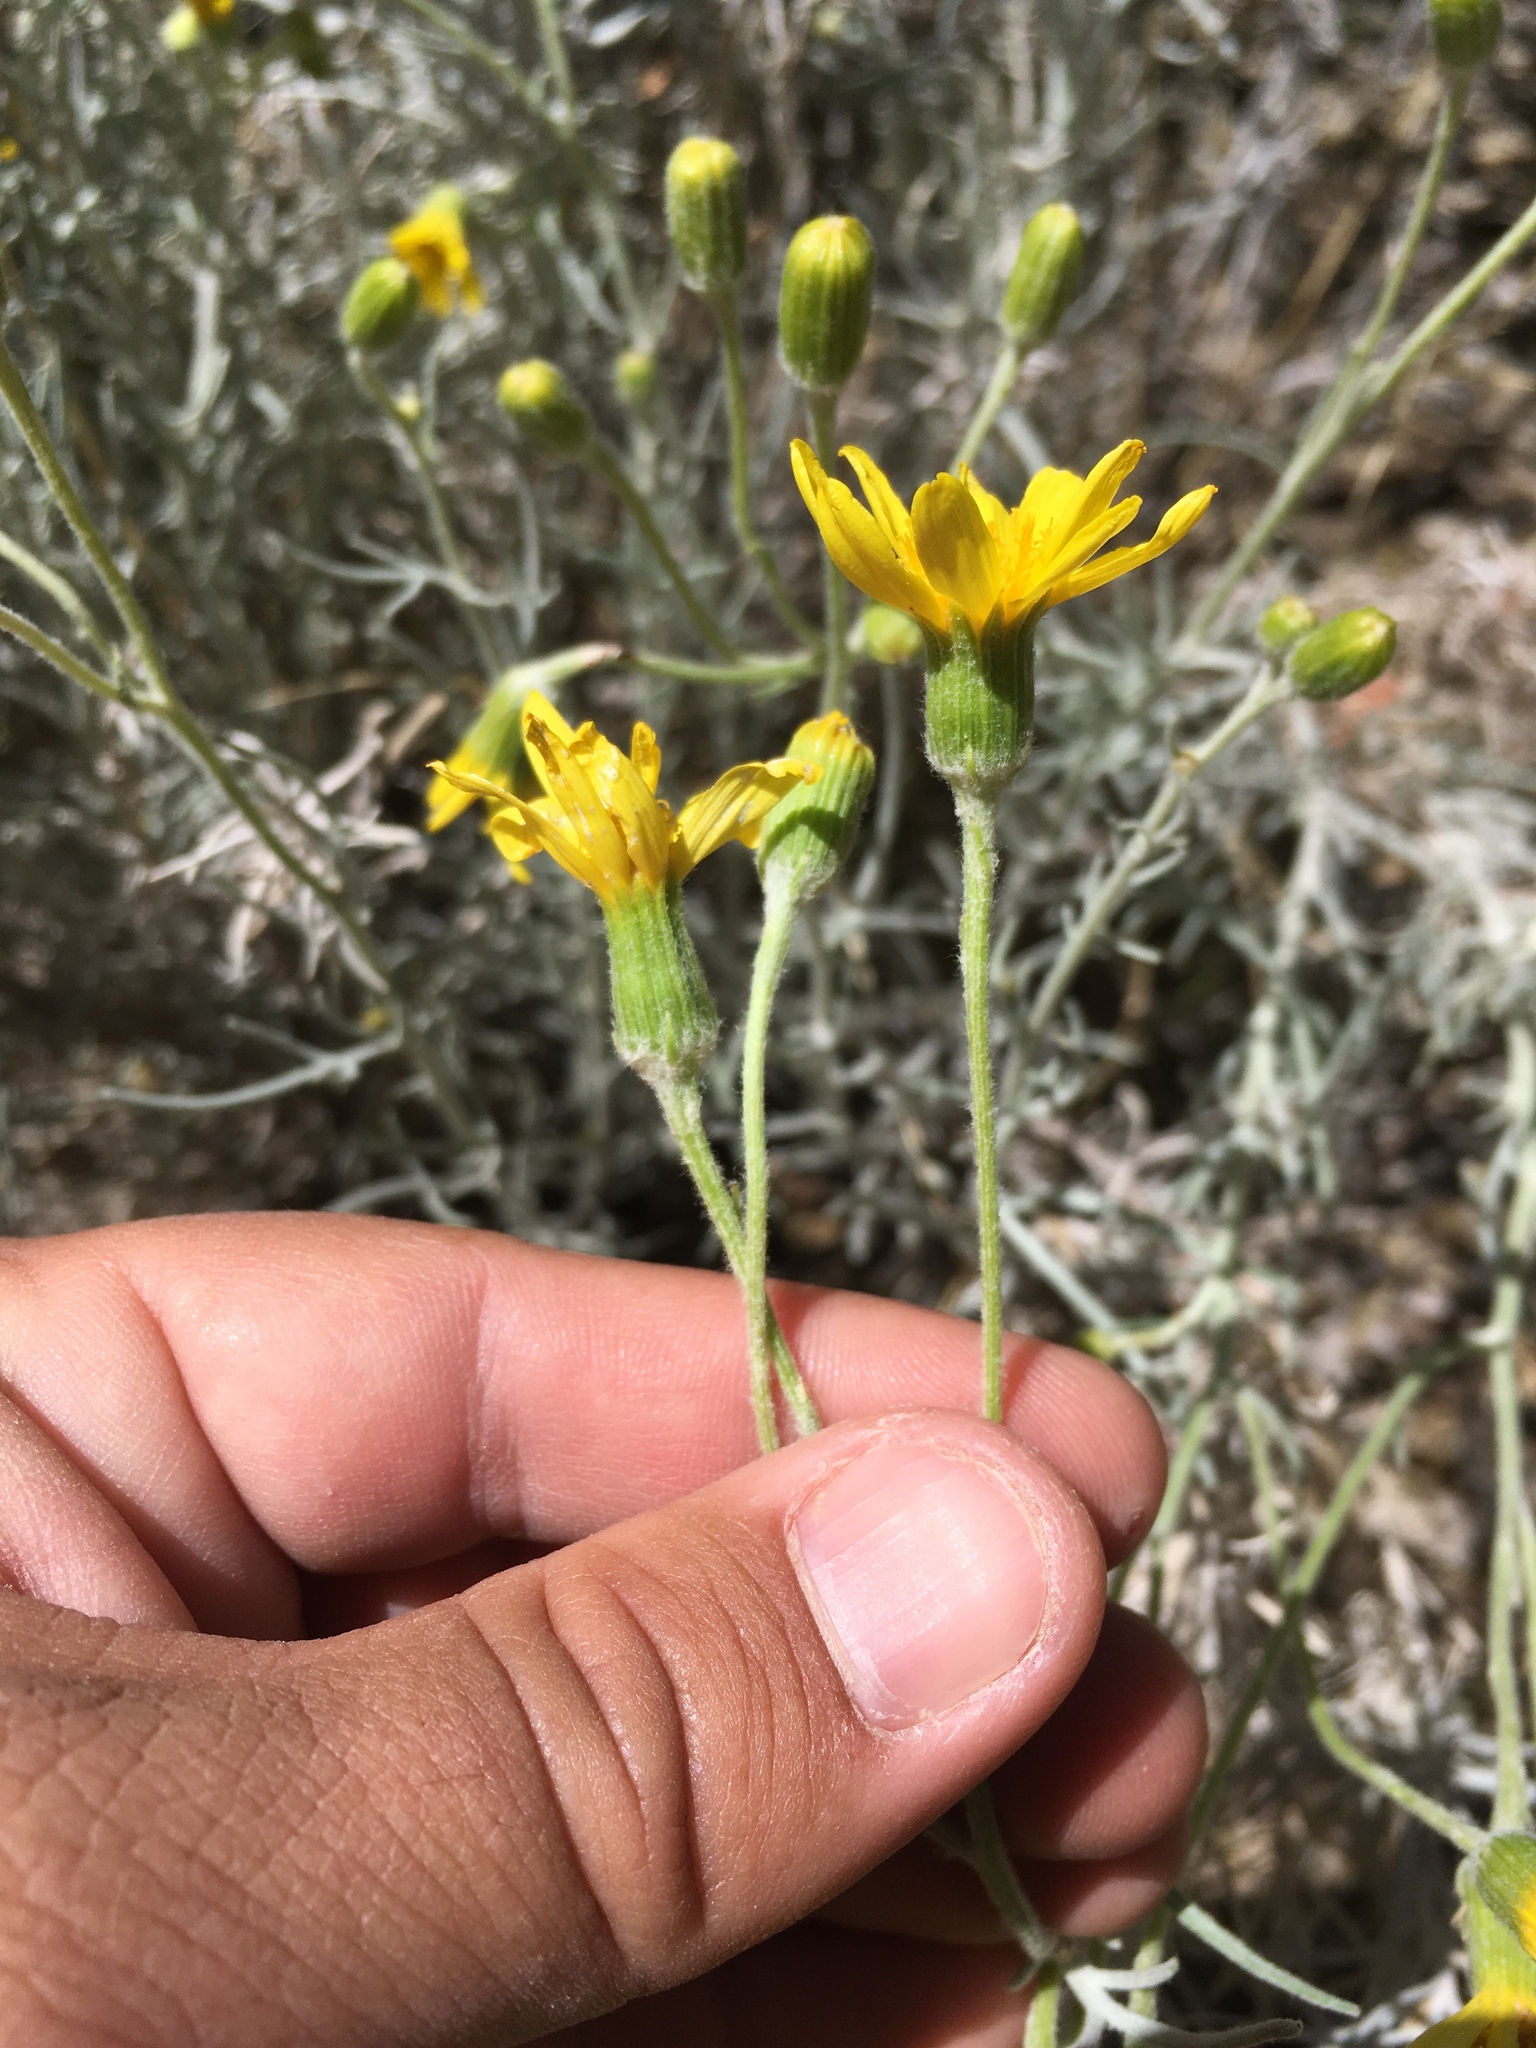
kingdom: Plantae
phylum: Tracheophyta
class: Magnoliopsida
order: Asterales
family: Asteraceae
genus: Senecio
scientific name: Senecio flaccidus
